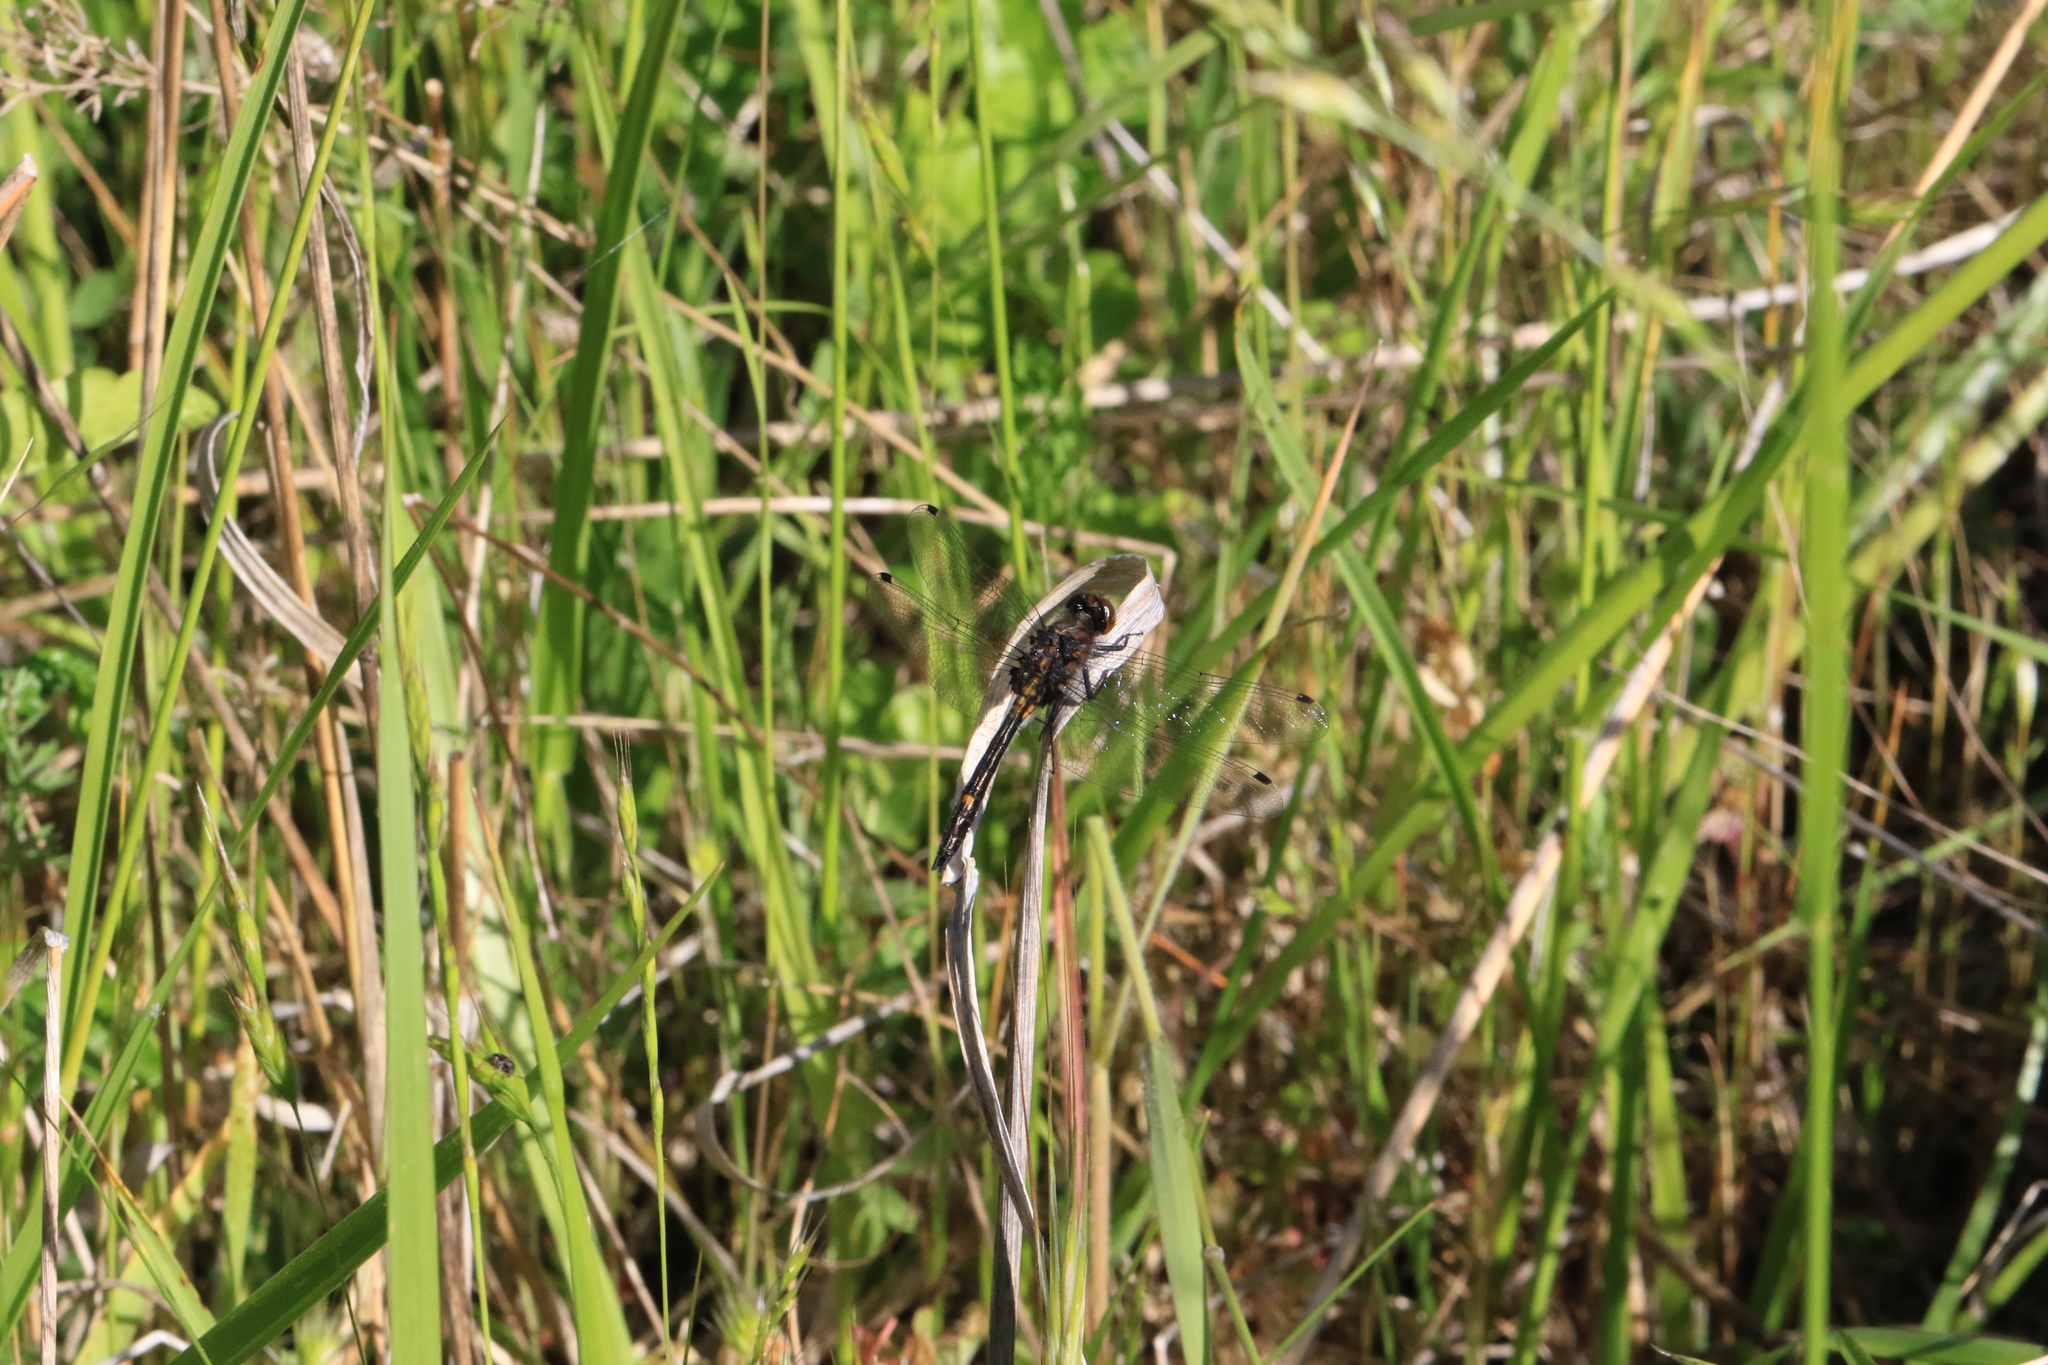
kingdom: Animalia
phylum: Arthropoda
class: Insecta
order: Odonata
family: Libellulidae
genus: Leucorrhinia
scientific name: Leucorrhinia intacta
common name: Dot-tailed whiteface
